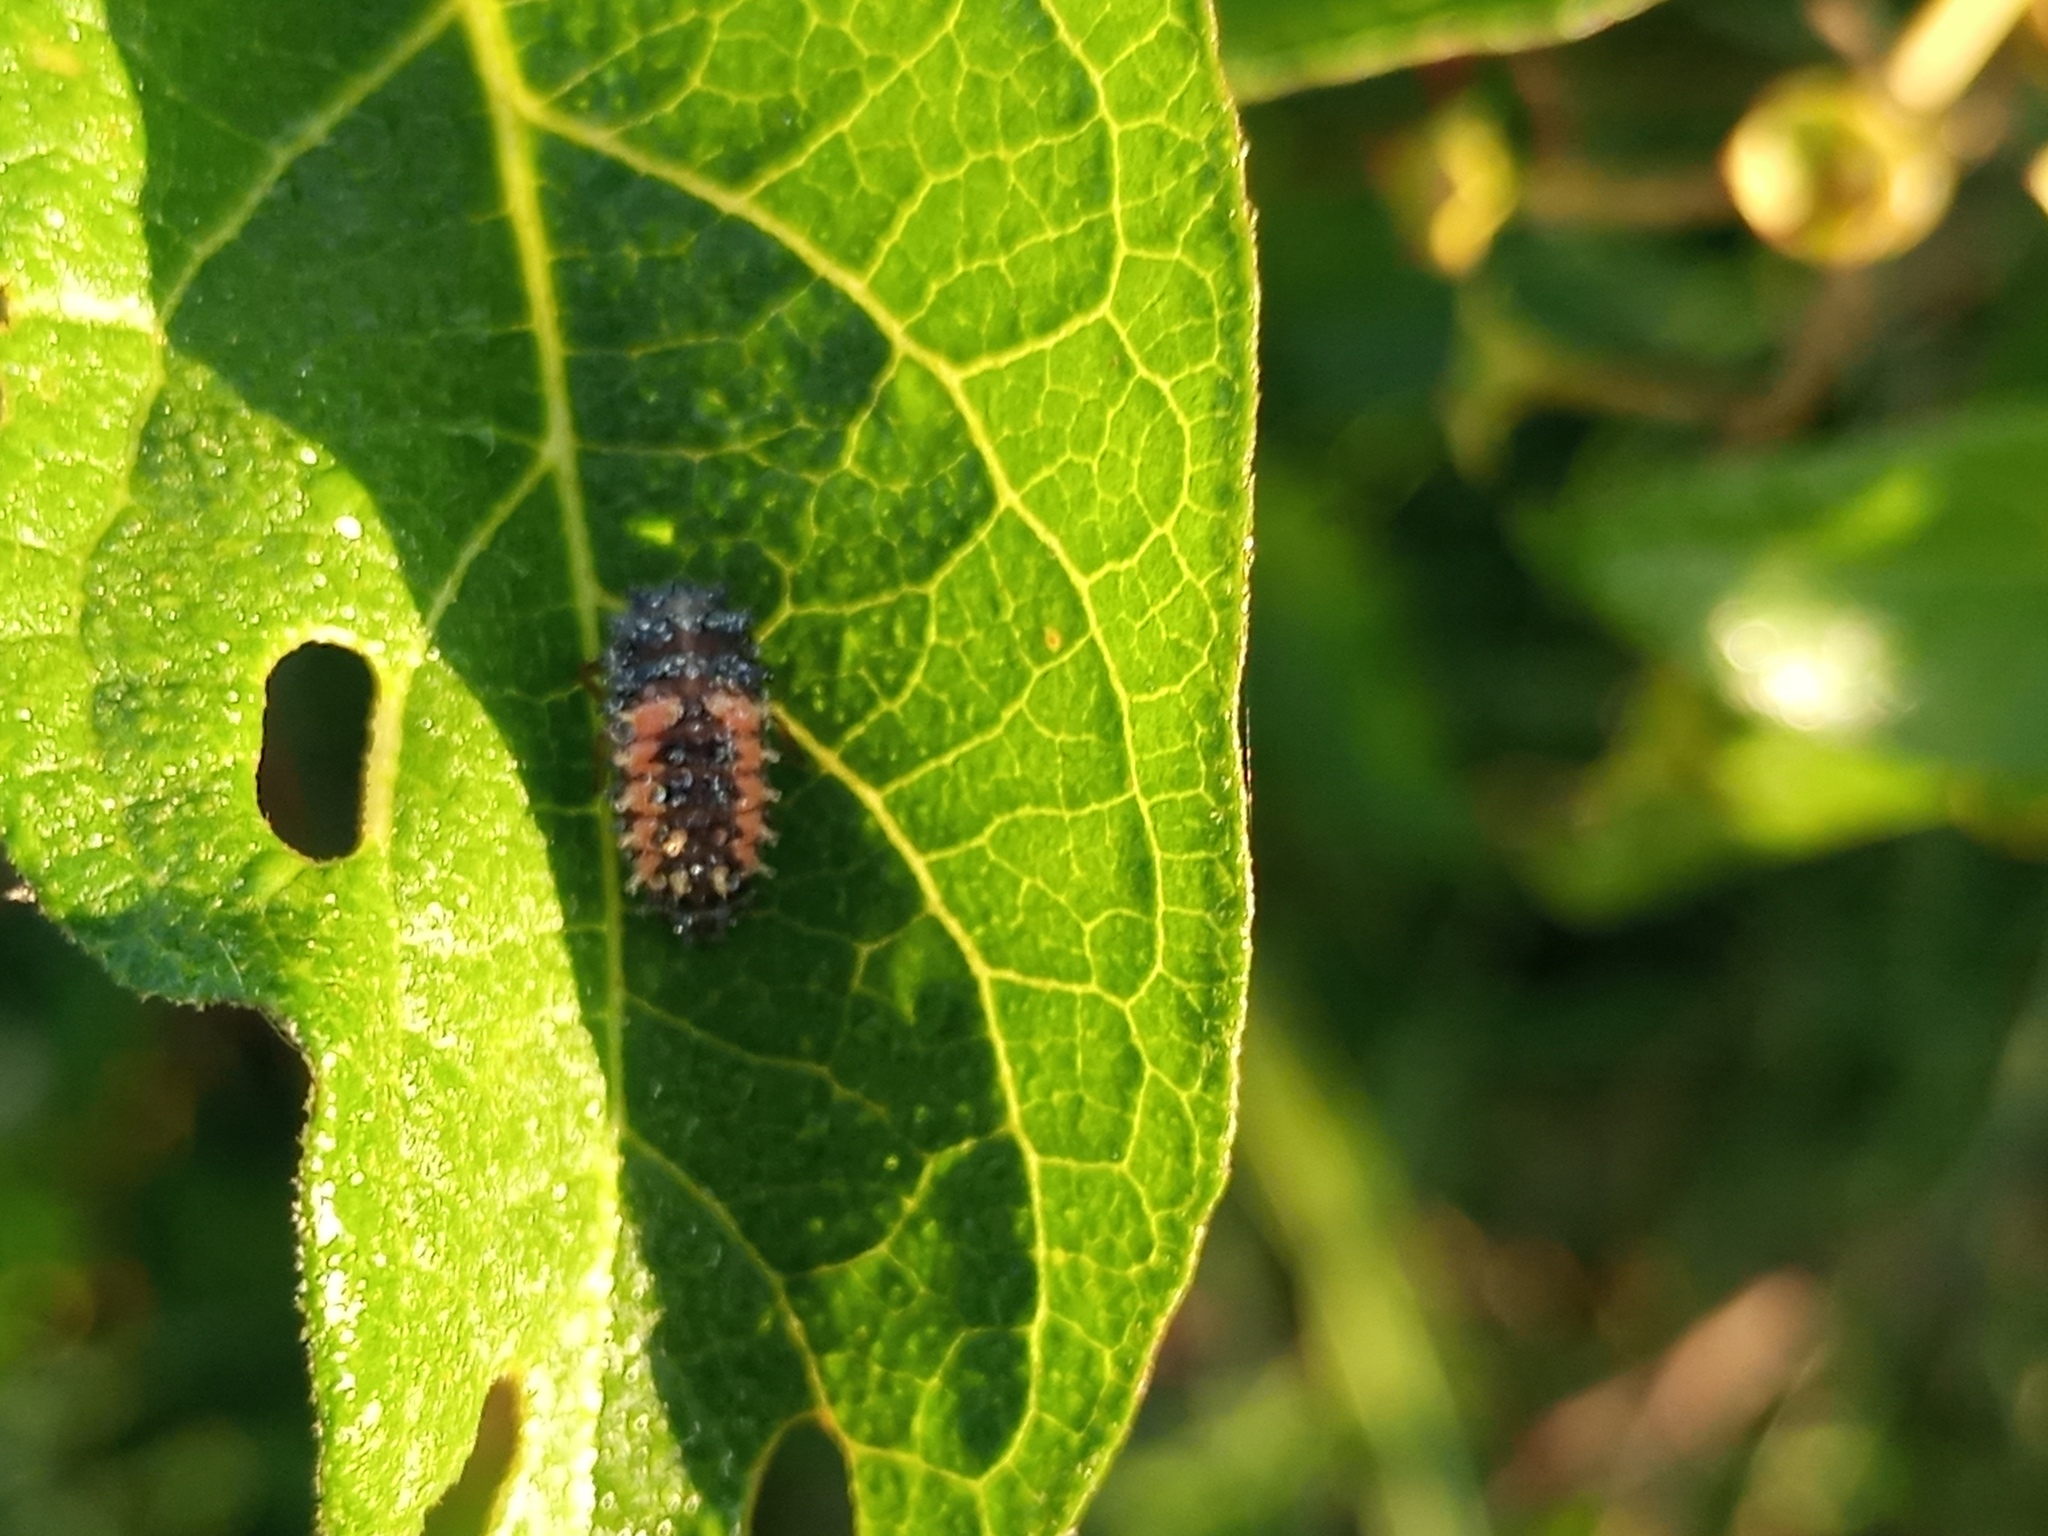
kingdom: Animalia
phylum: Arthropoda
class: Insecta
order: Coleoptera
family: Coccinellidae
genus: Harmonia
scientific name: Harmonia axyridis
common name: Harlequin ladybird
